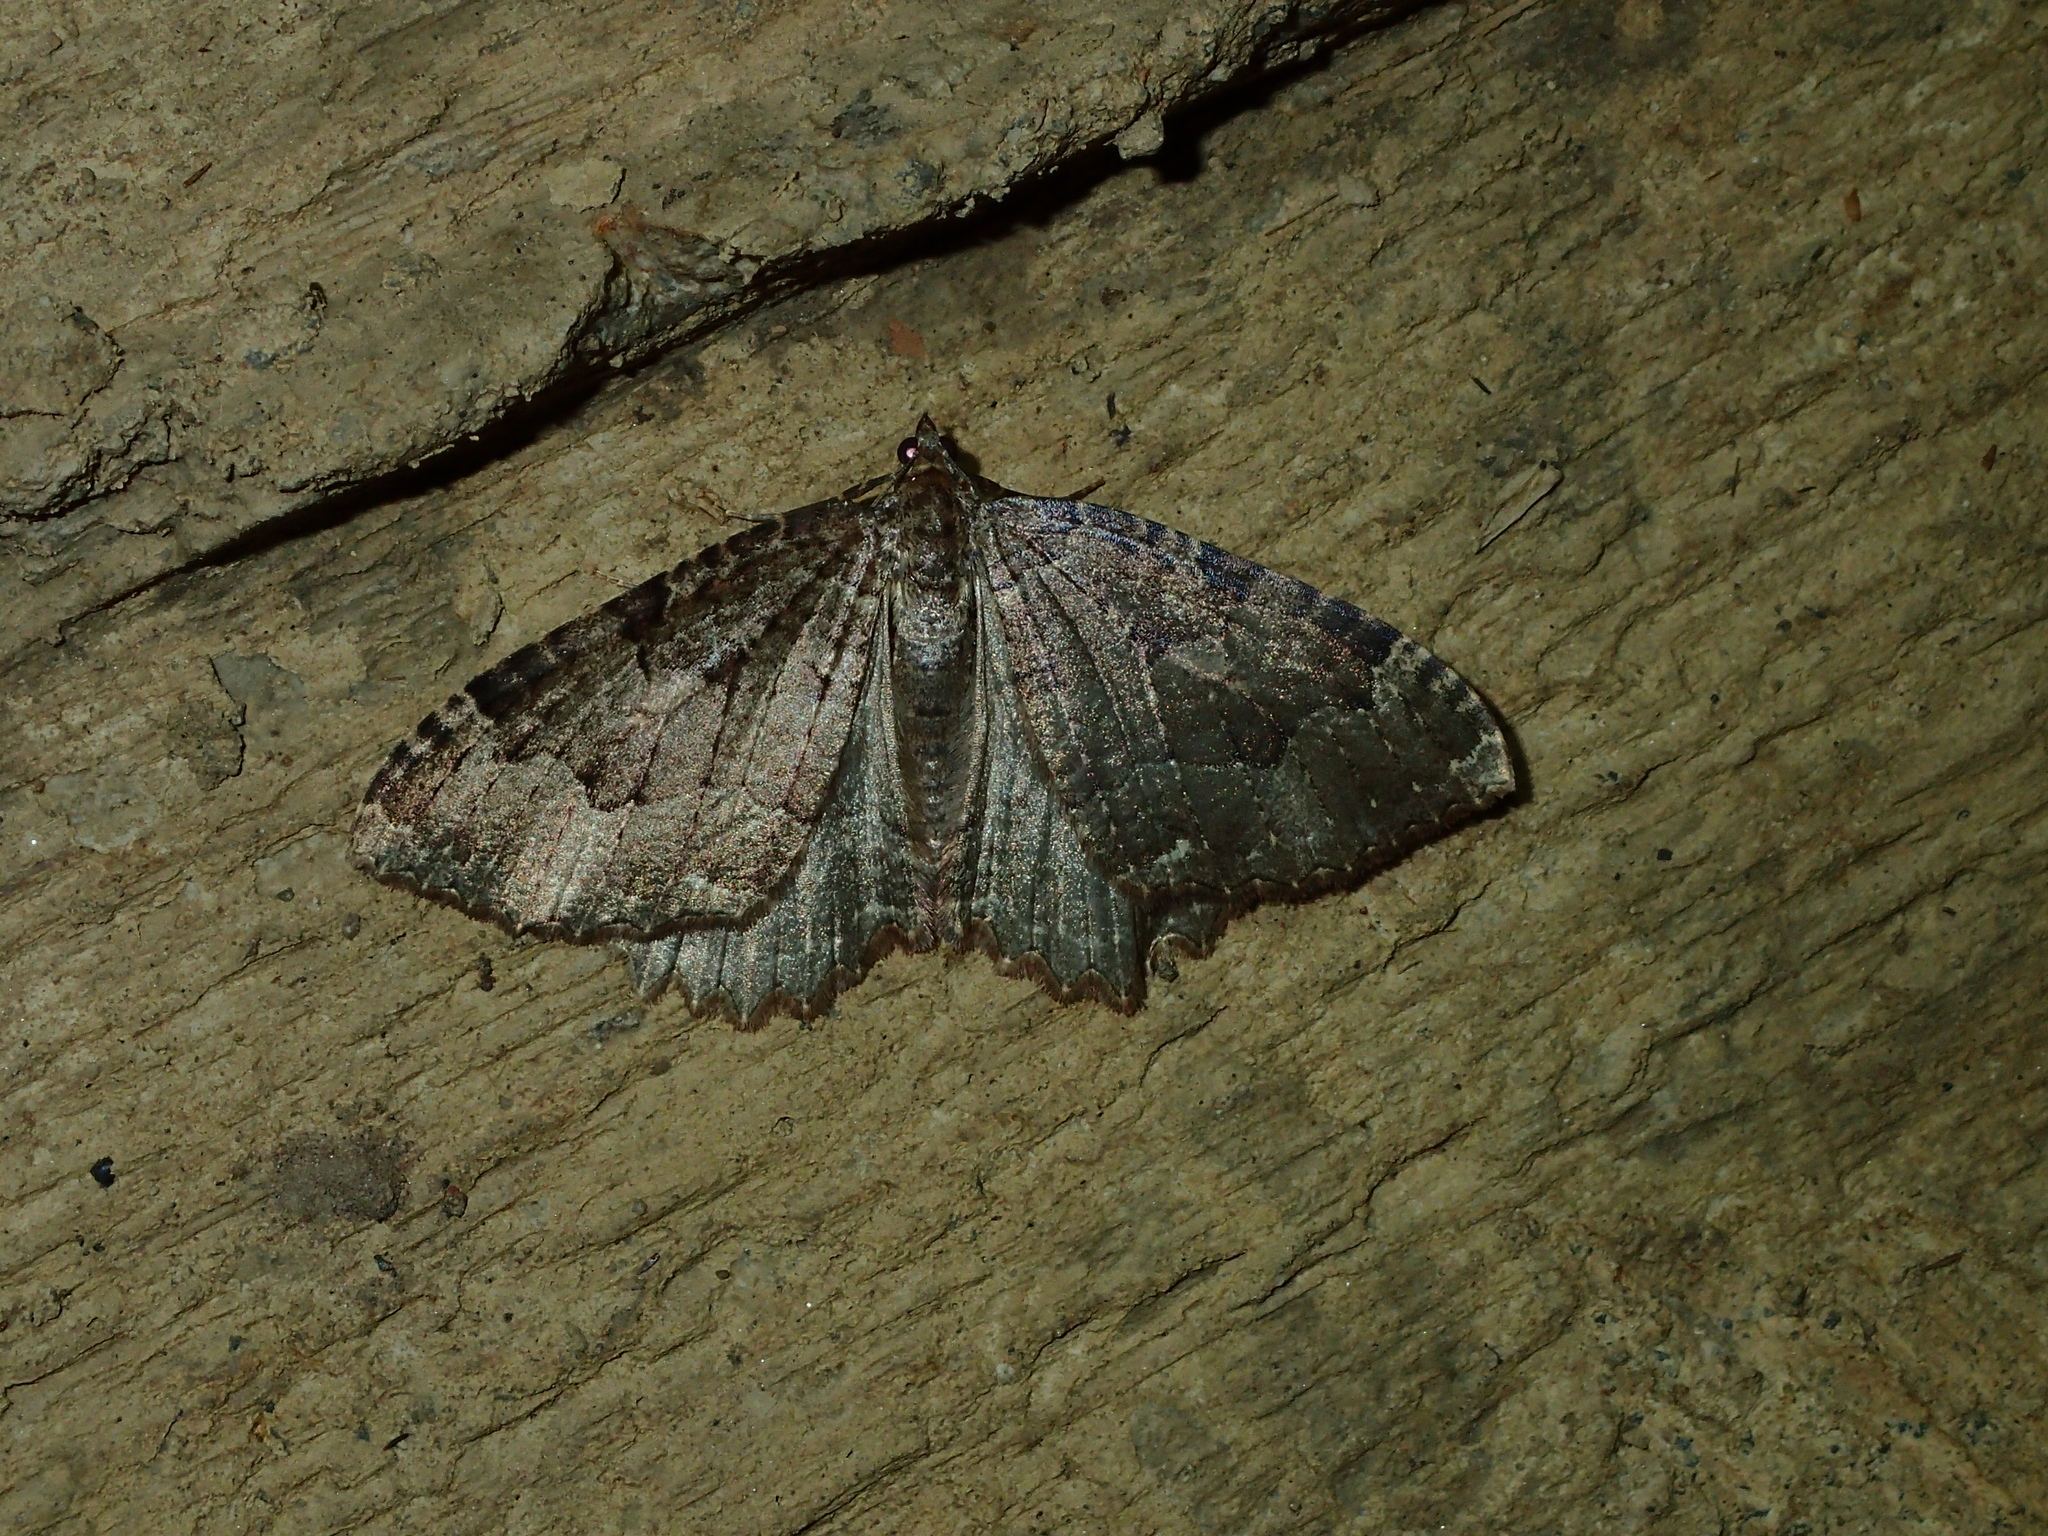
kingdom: Animalia
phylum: Arthropoda
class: Insecta
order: Lepidoptera
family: Geometridae
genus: Triphosa
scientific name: Triphosa dubitata
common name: Tissue
